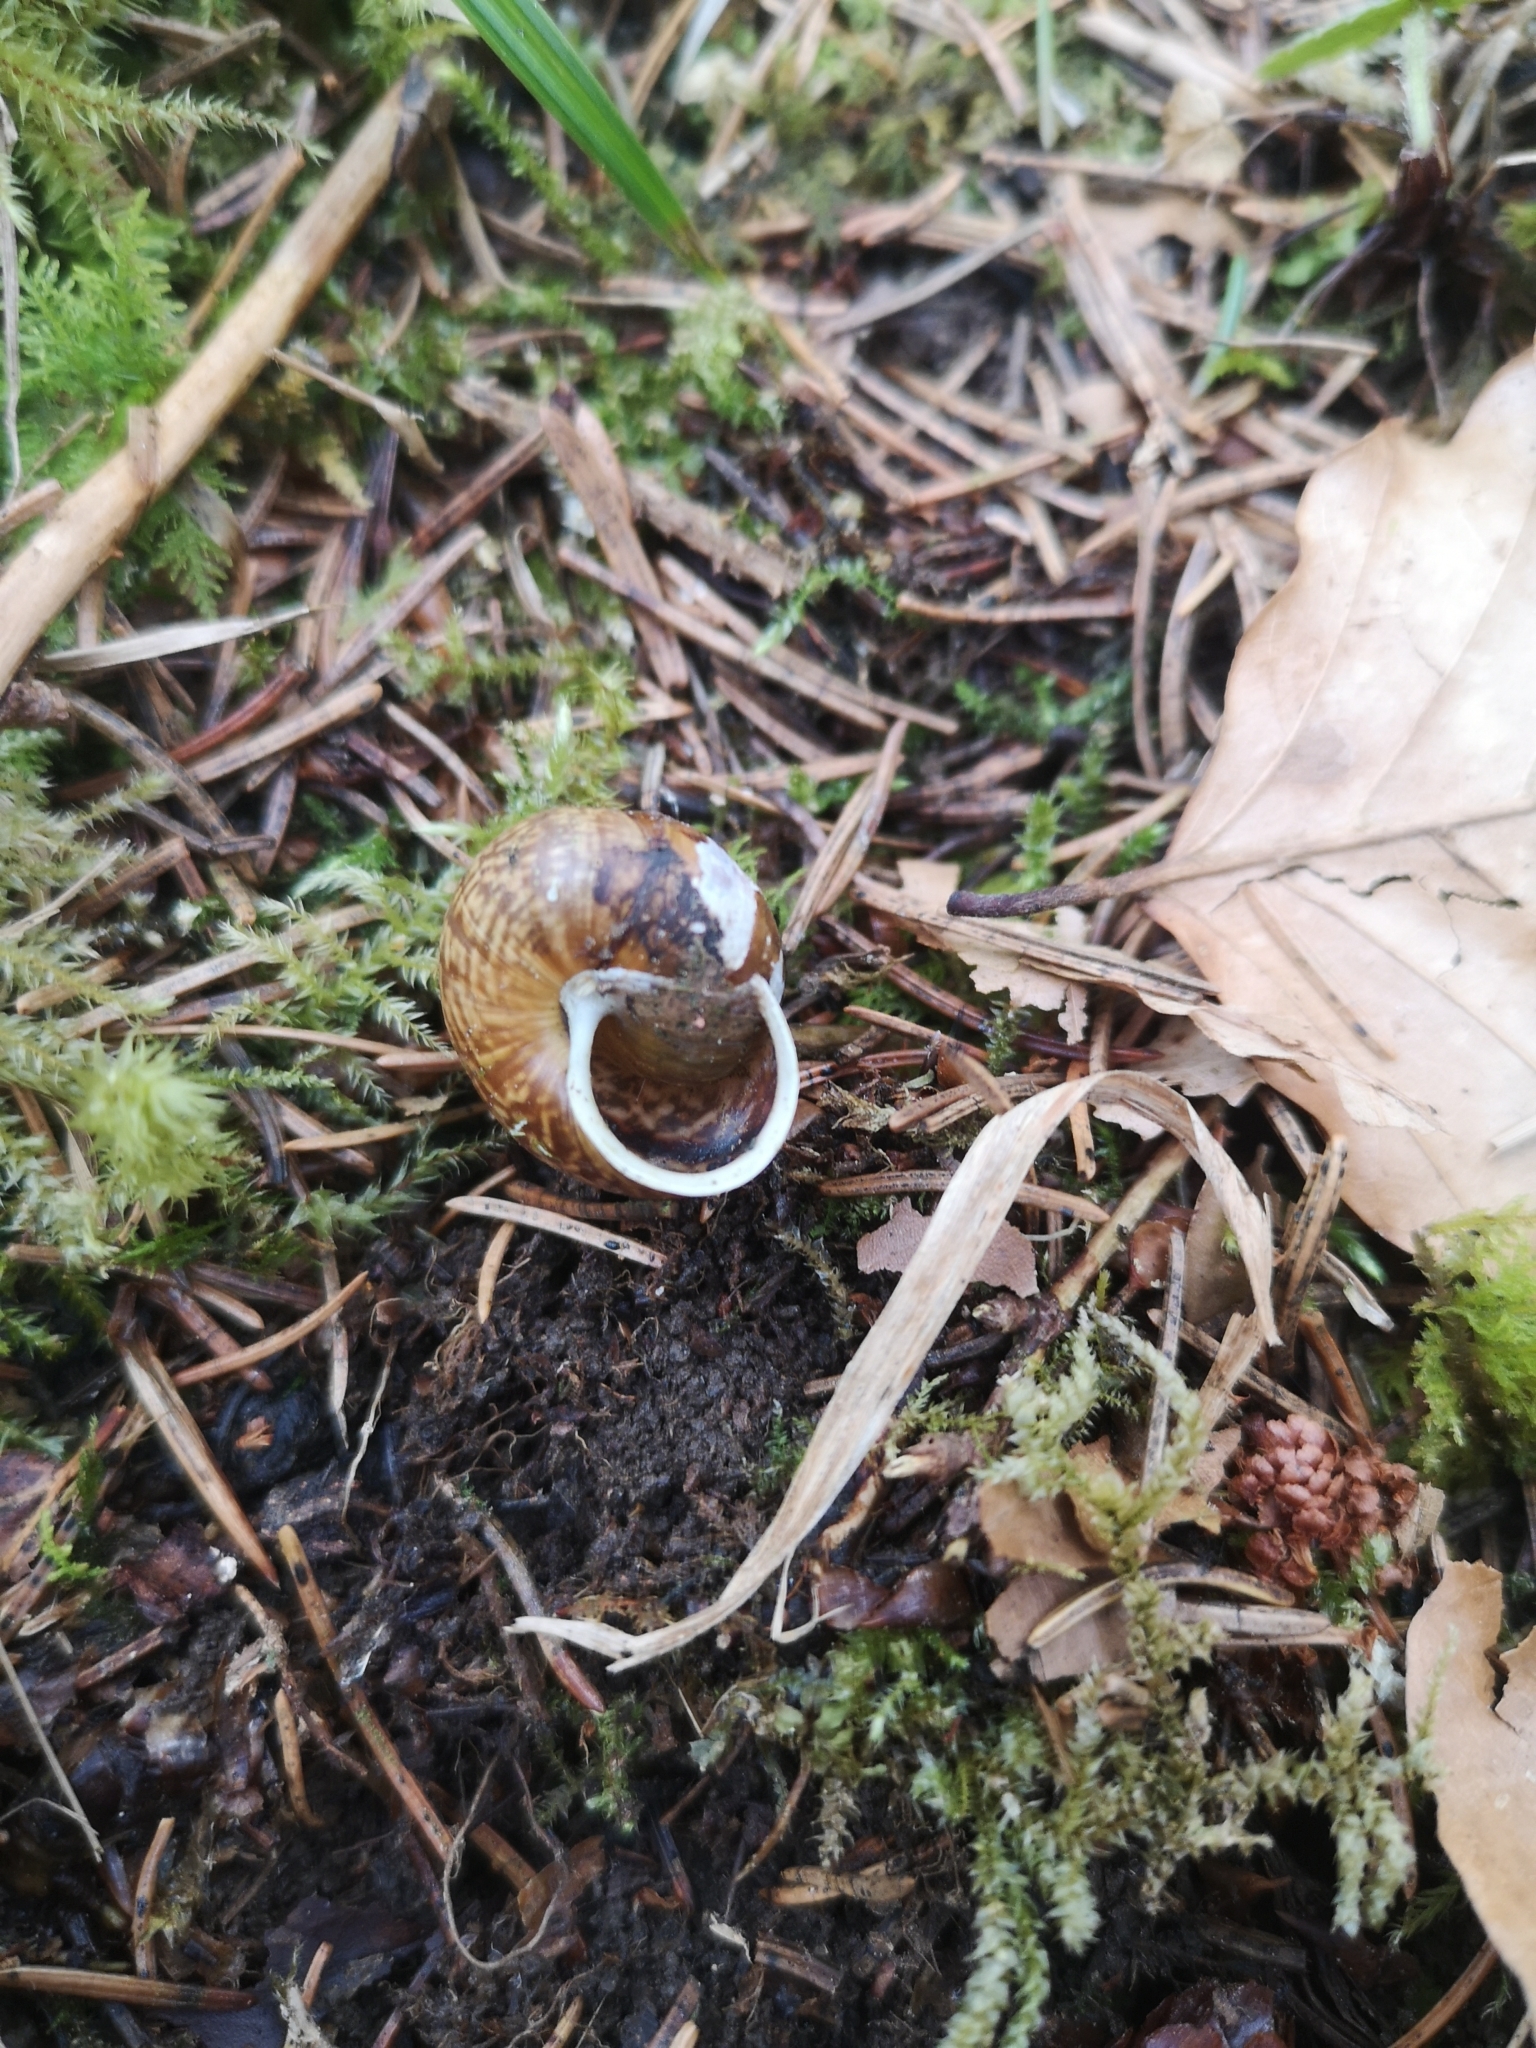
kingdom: Animalia
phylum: Mollusca
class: Gastropoda
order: Stylommatophora
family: Helicidae
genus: Arianta
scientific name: Arianta arbustorum
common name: Copse snail
